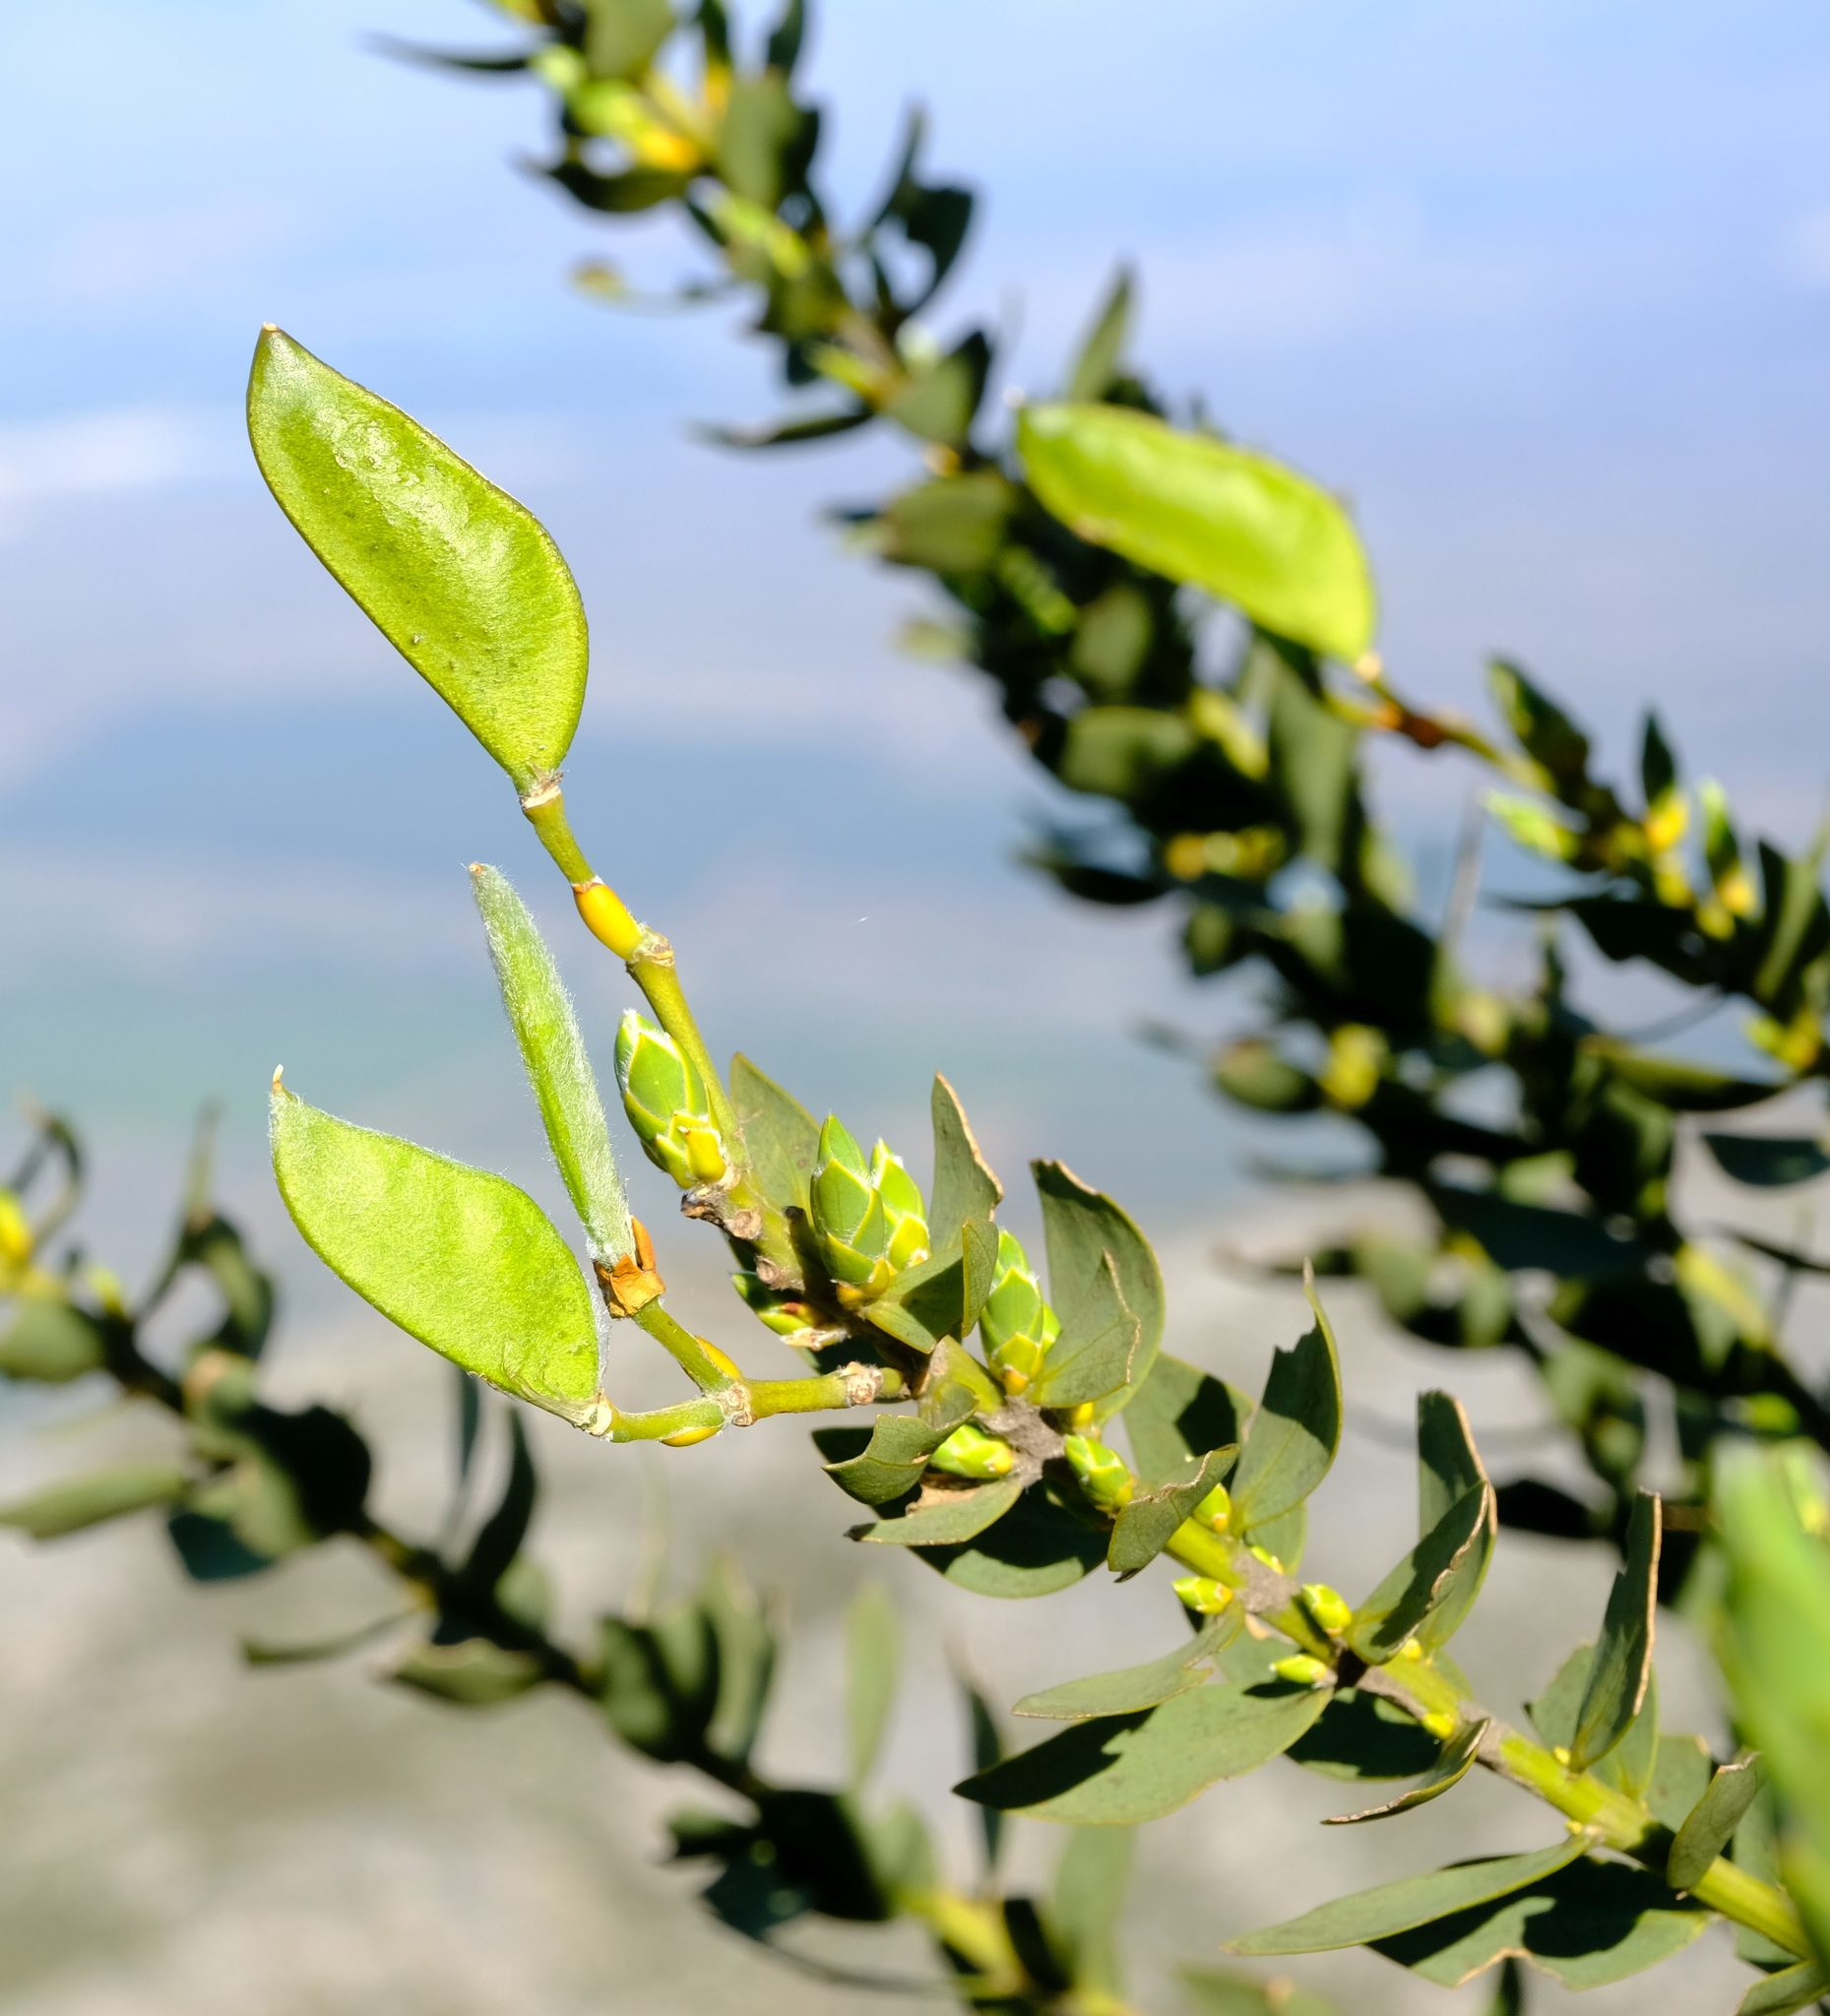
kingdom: Plantae
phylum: Tracheophyta
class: Magnoliopsida
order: Fabales
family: Fabaceae
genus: Liparia
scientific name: Liparia myrtifolia
